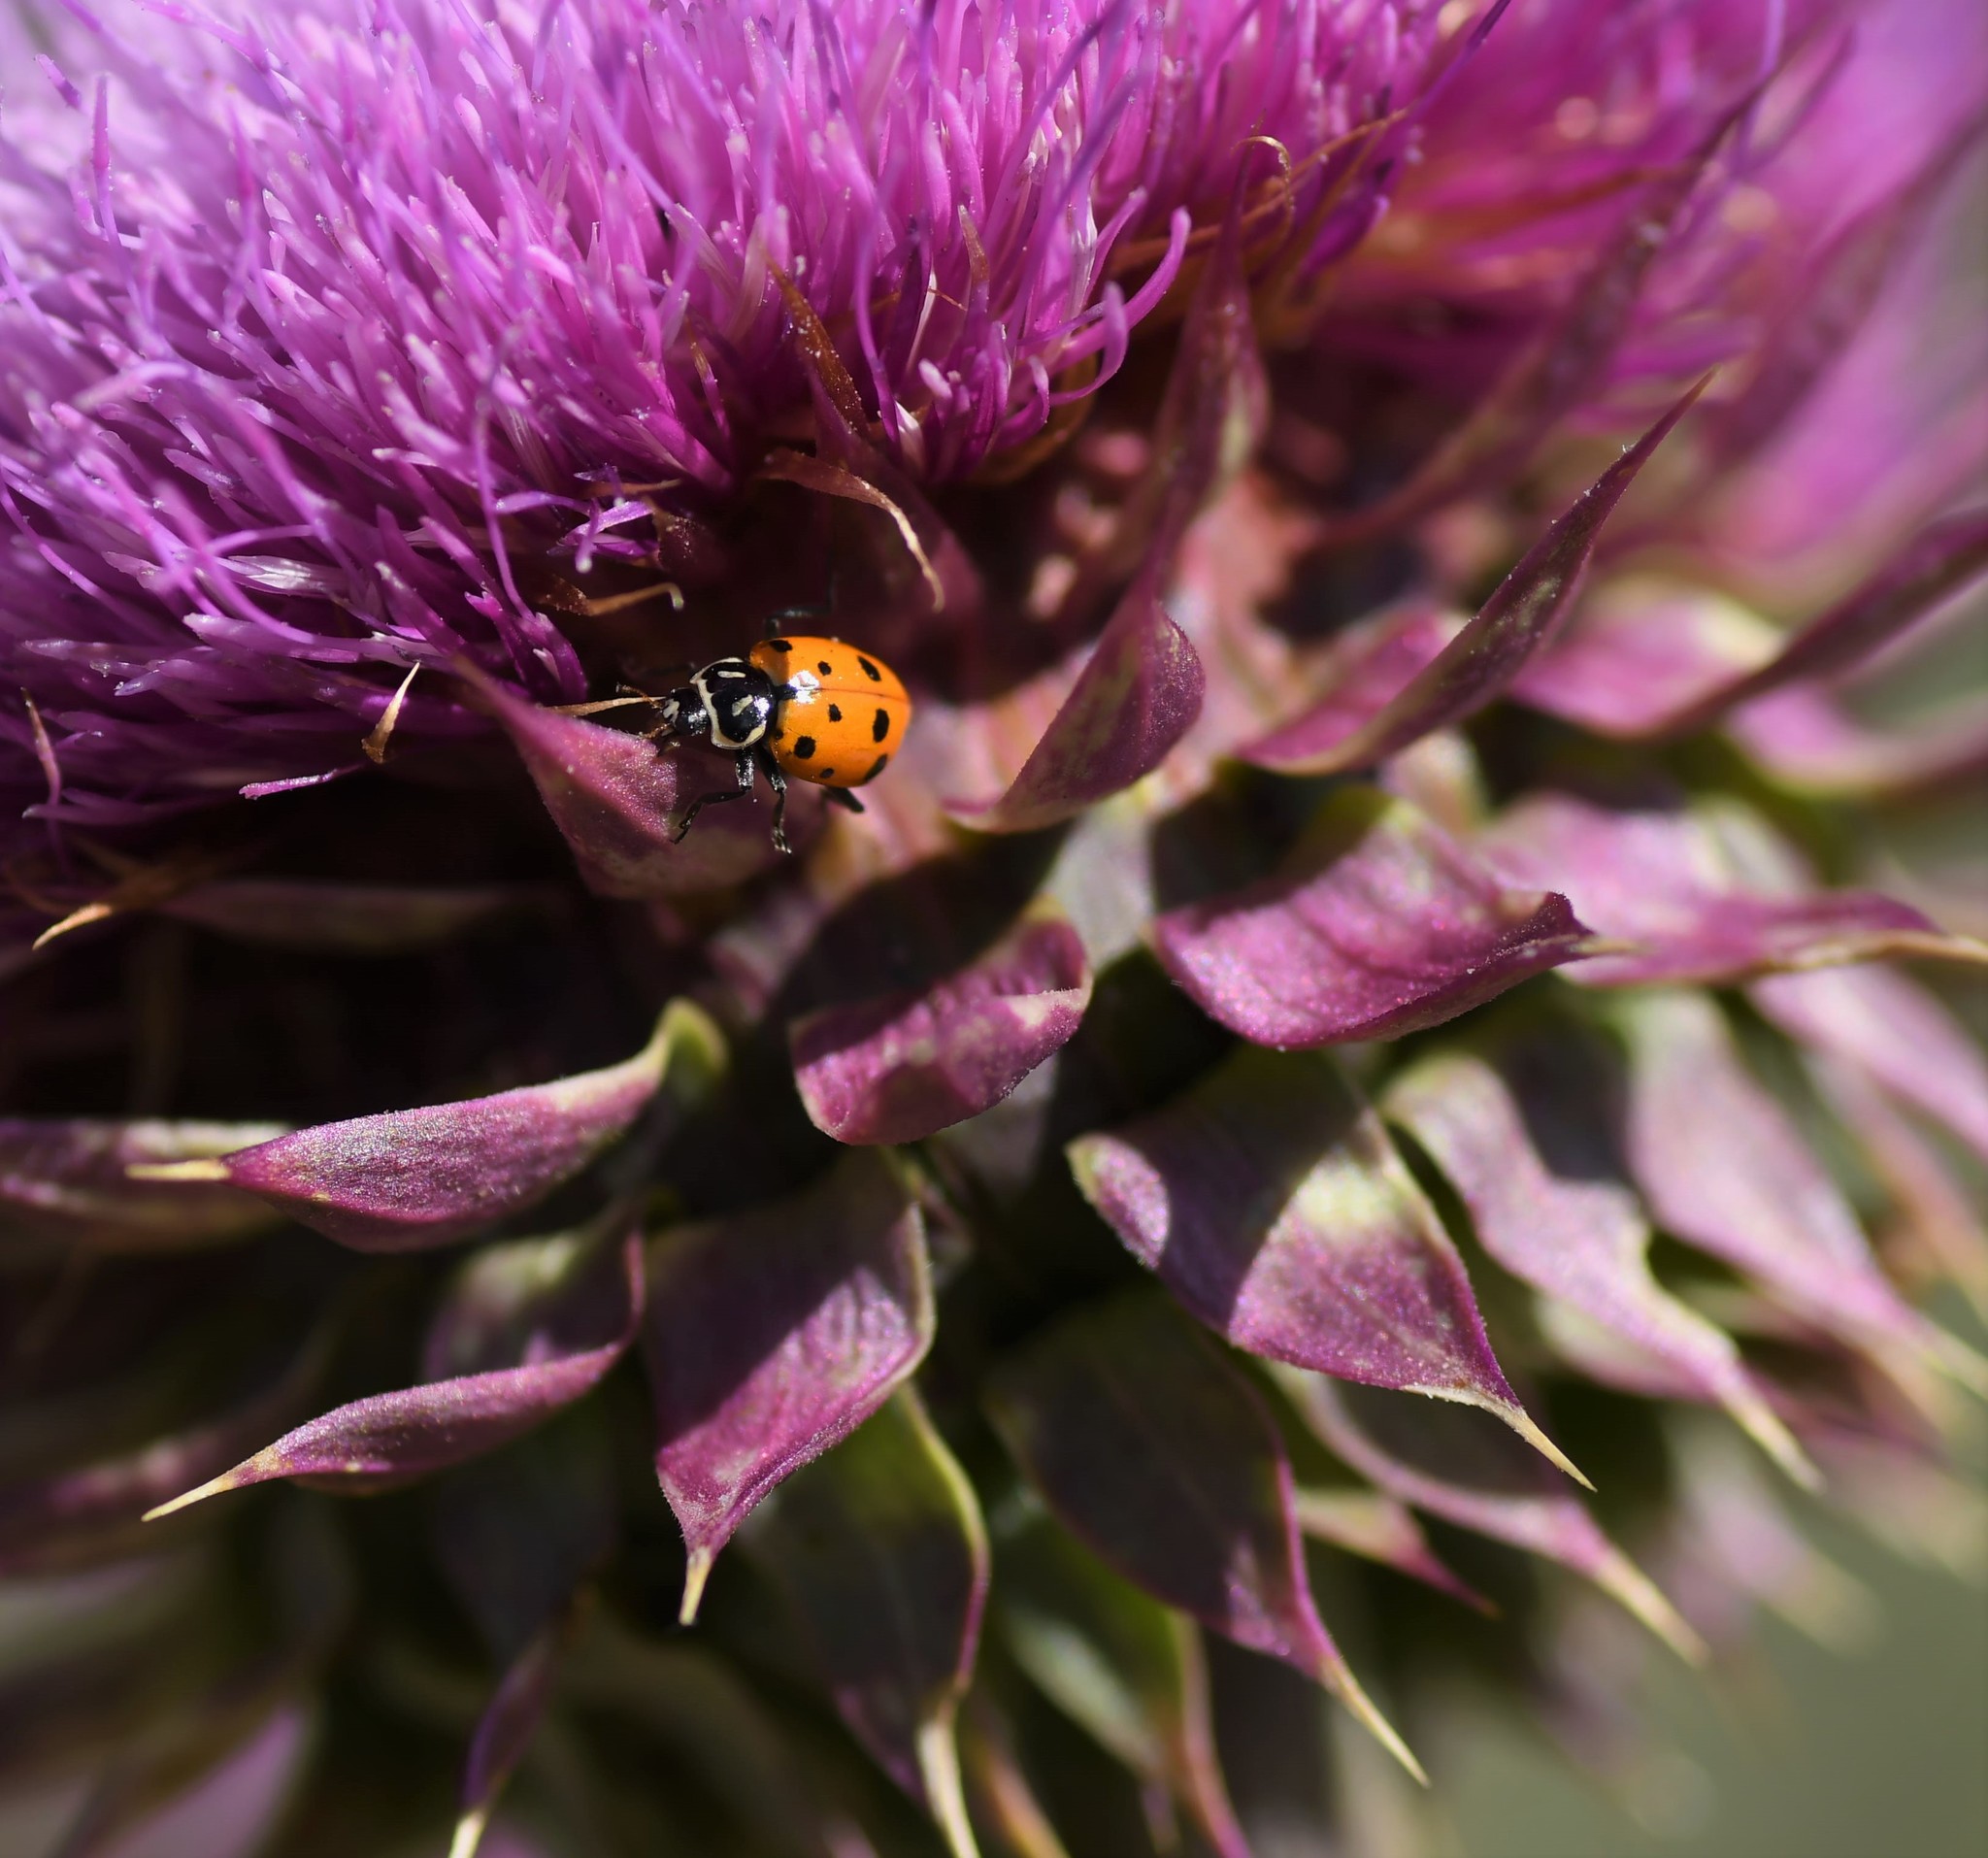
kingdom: Animalia
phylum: Arthropoda
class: Insecta
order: Coleoptera
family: Coccinellidae
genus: Hippodamia
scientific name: Hippodamia convergens
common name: Convergent lady beetle
